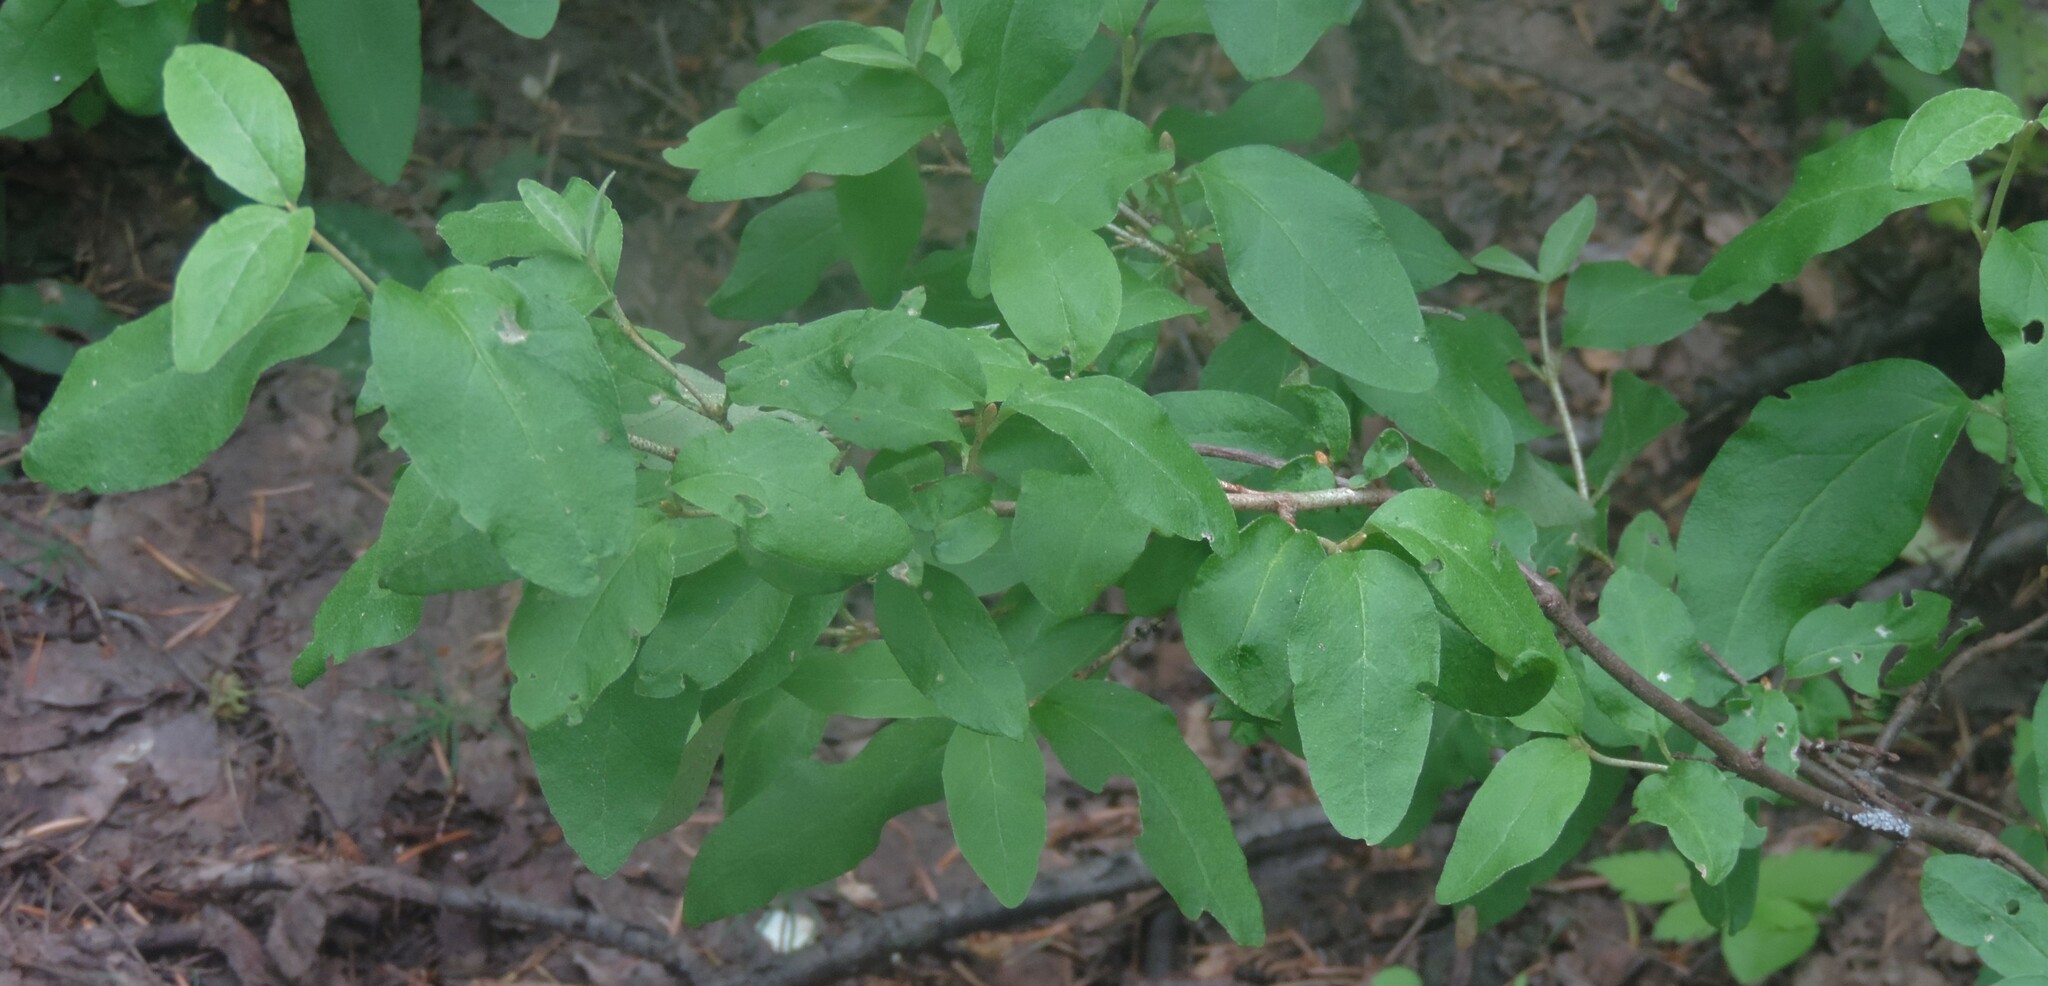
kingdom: Plantae
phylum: Tracheophyta
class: Magnoliopsida
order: Rosales
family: Elaeagnaceae
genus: Shepherdia
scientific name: Shepherdia canadensis
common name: Soapberry
